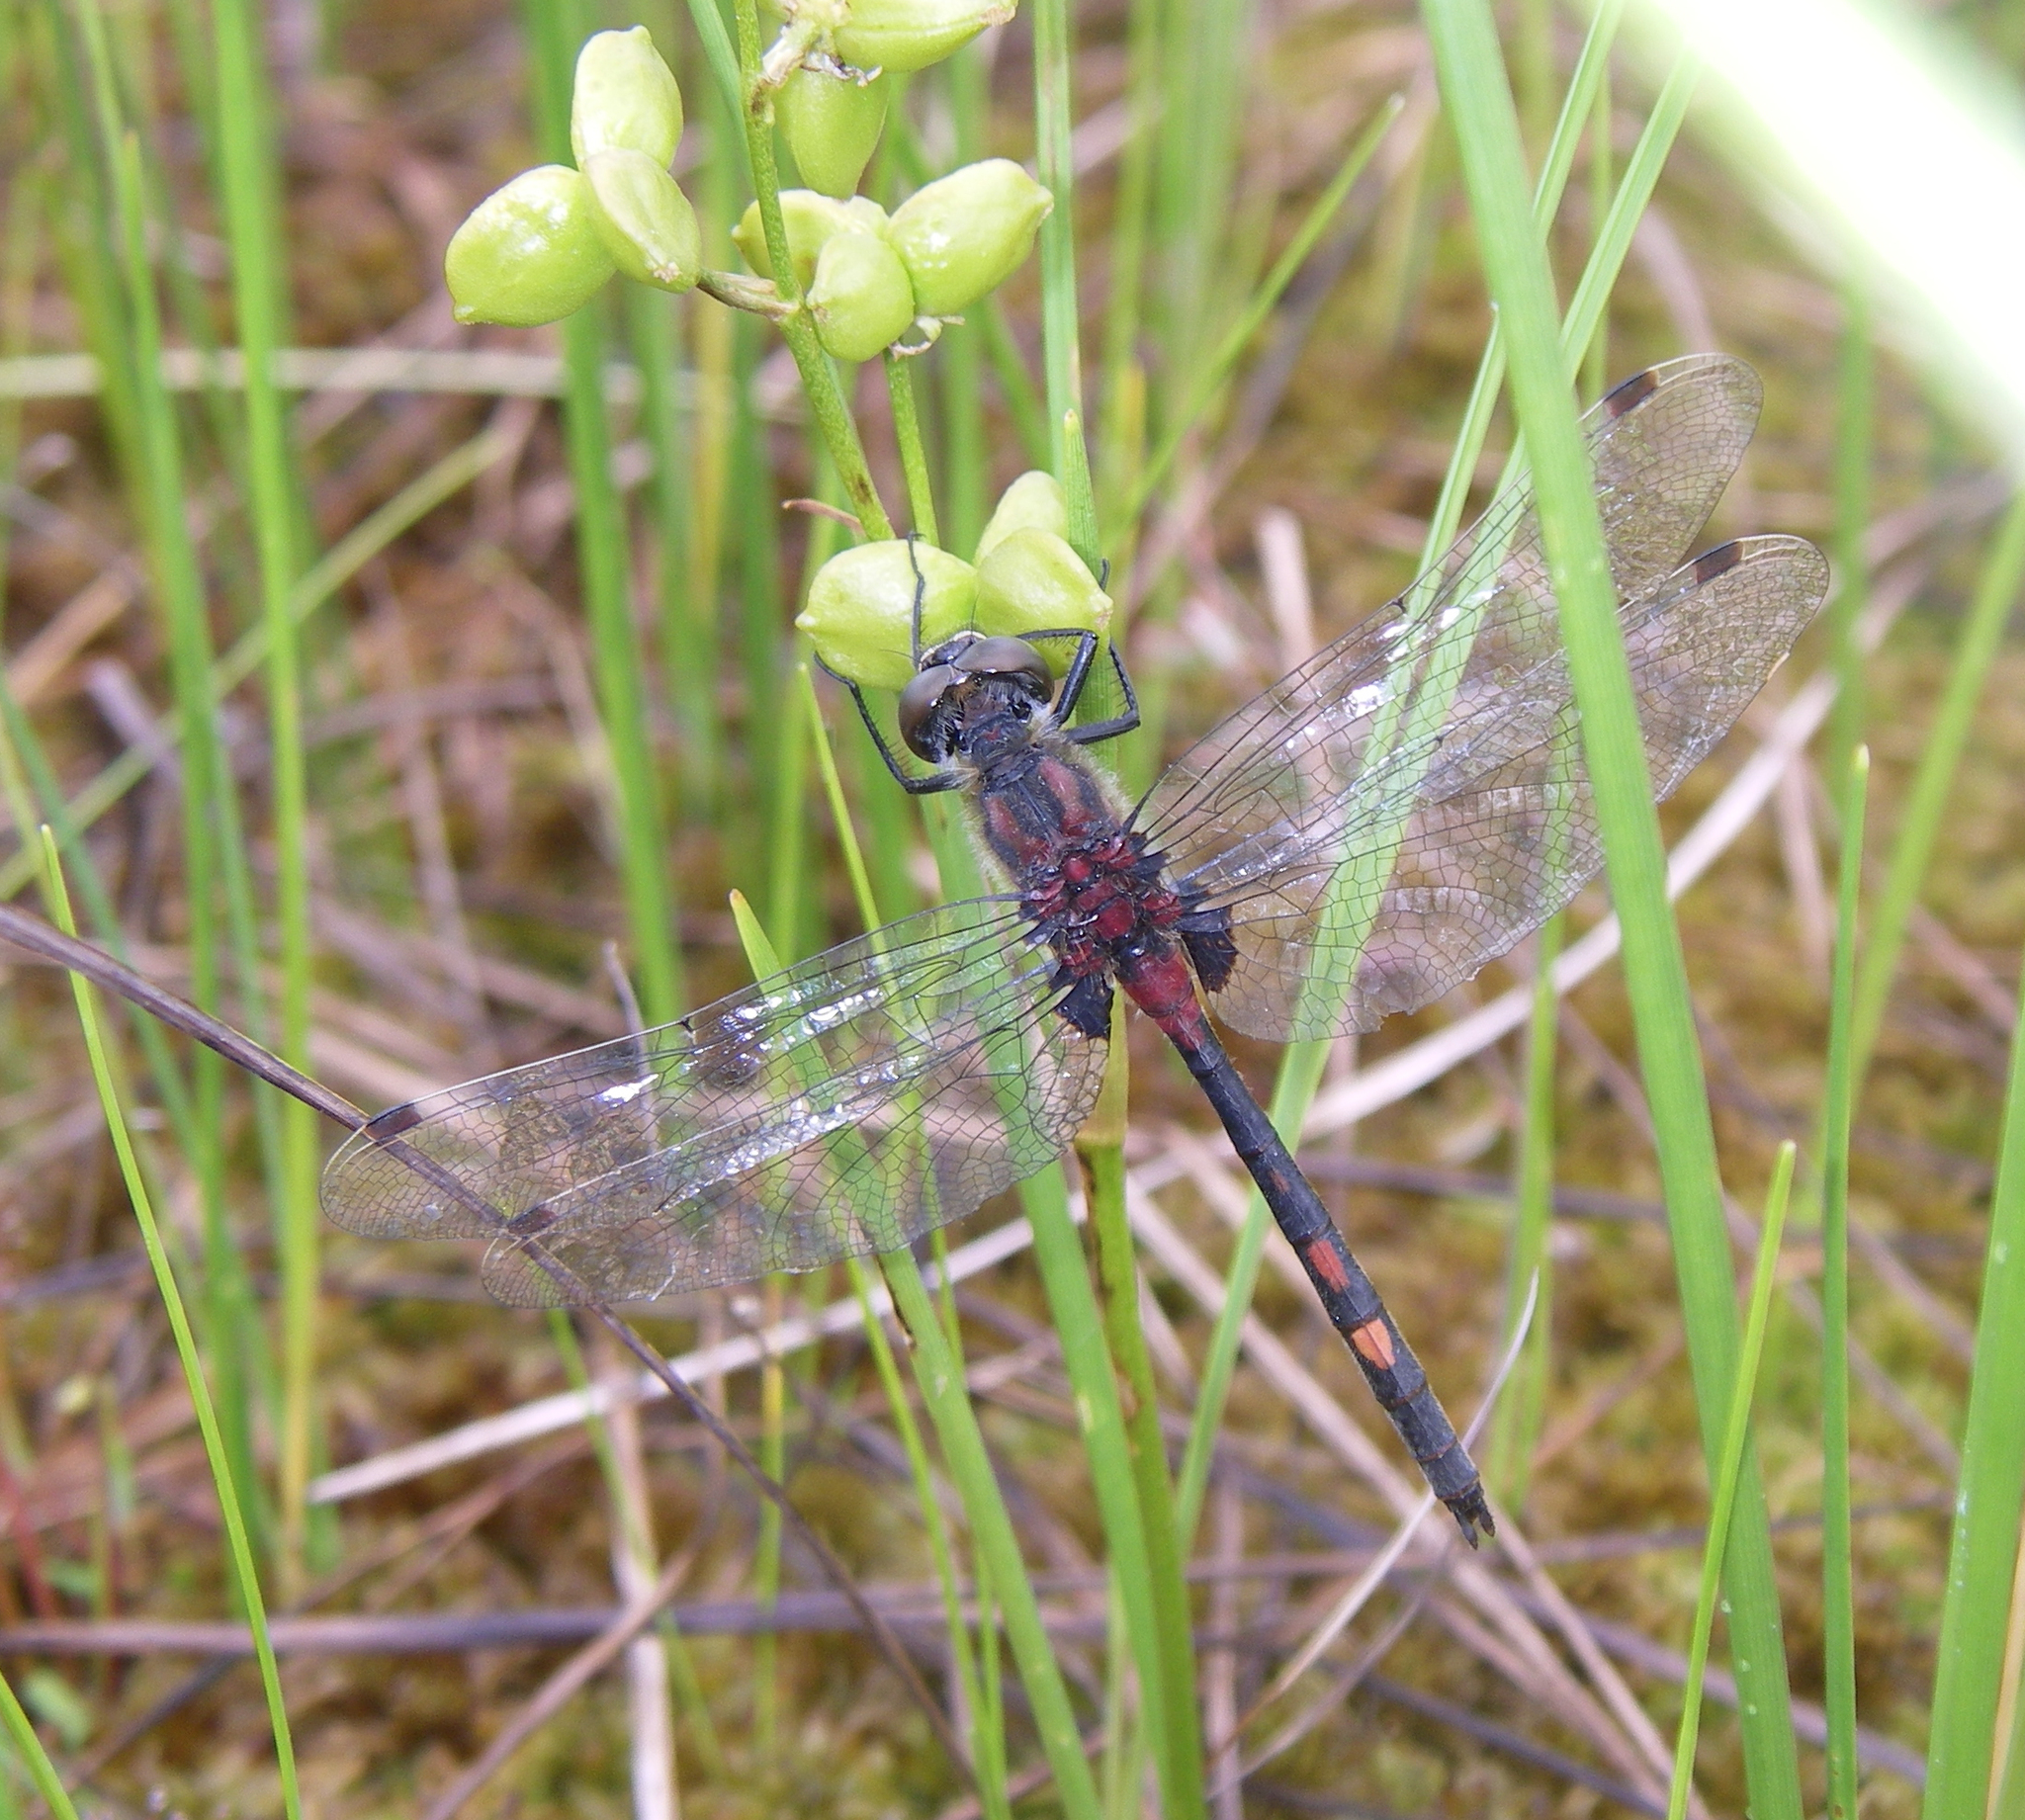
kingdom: Plantae
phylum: Tracheophyta
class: Liliopsida
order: Alismatales
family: Scheuchzeriaceae
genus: Scheuchzeria
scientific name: Scheuchzeria palustris
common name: Rannoch-rush
